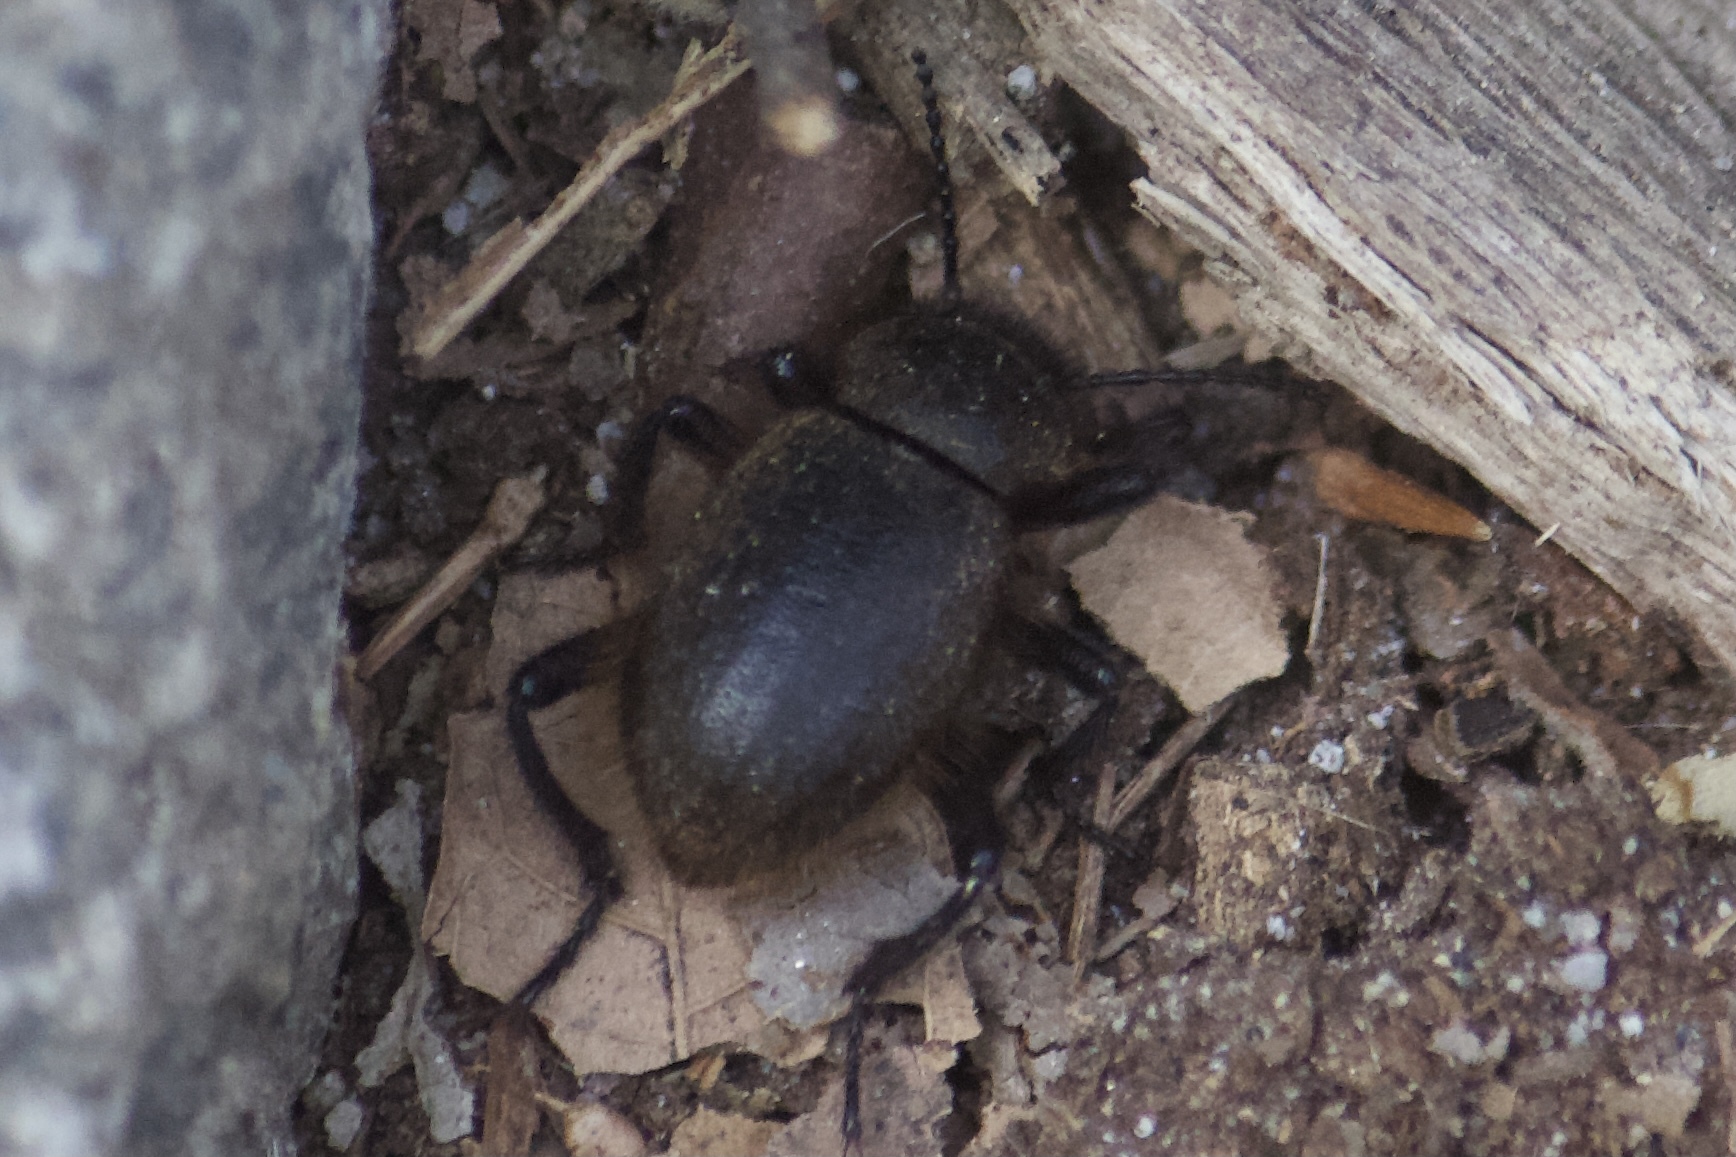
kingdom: Animalia
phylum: Arthropoda
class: Insecta
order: Coleoptera
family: Tenebrionidae
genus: Eleodes
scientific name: Eleodes osculans
